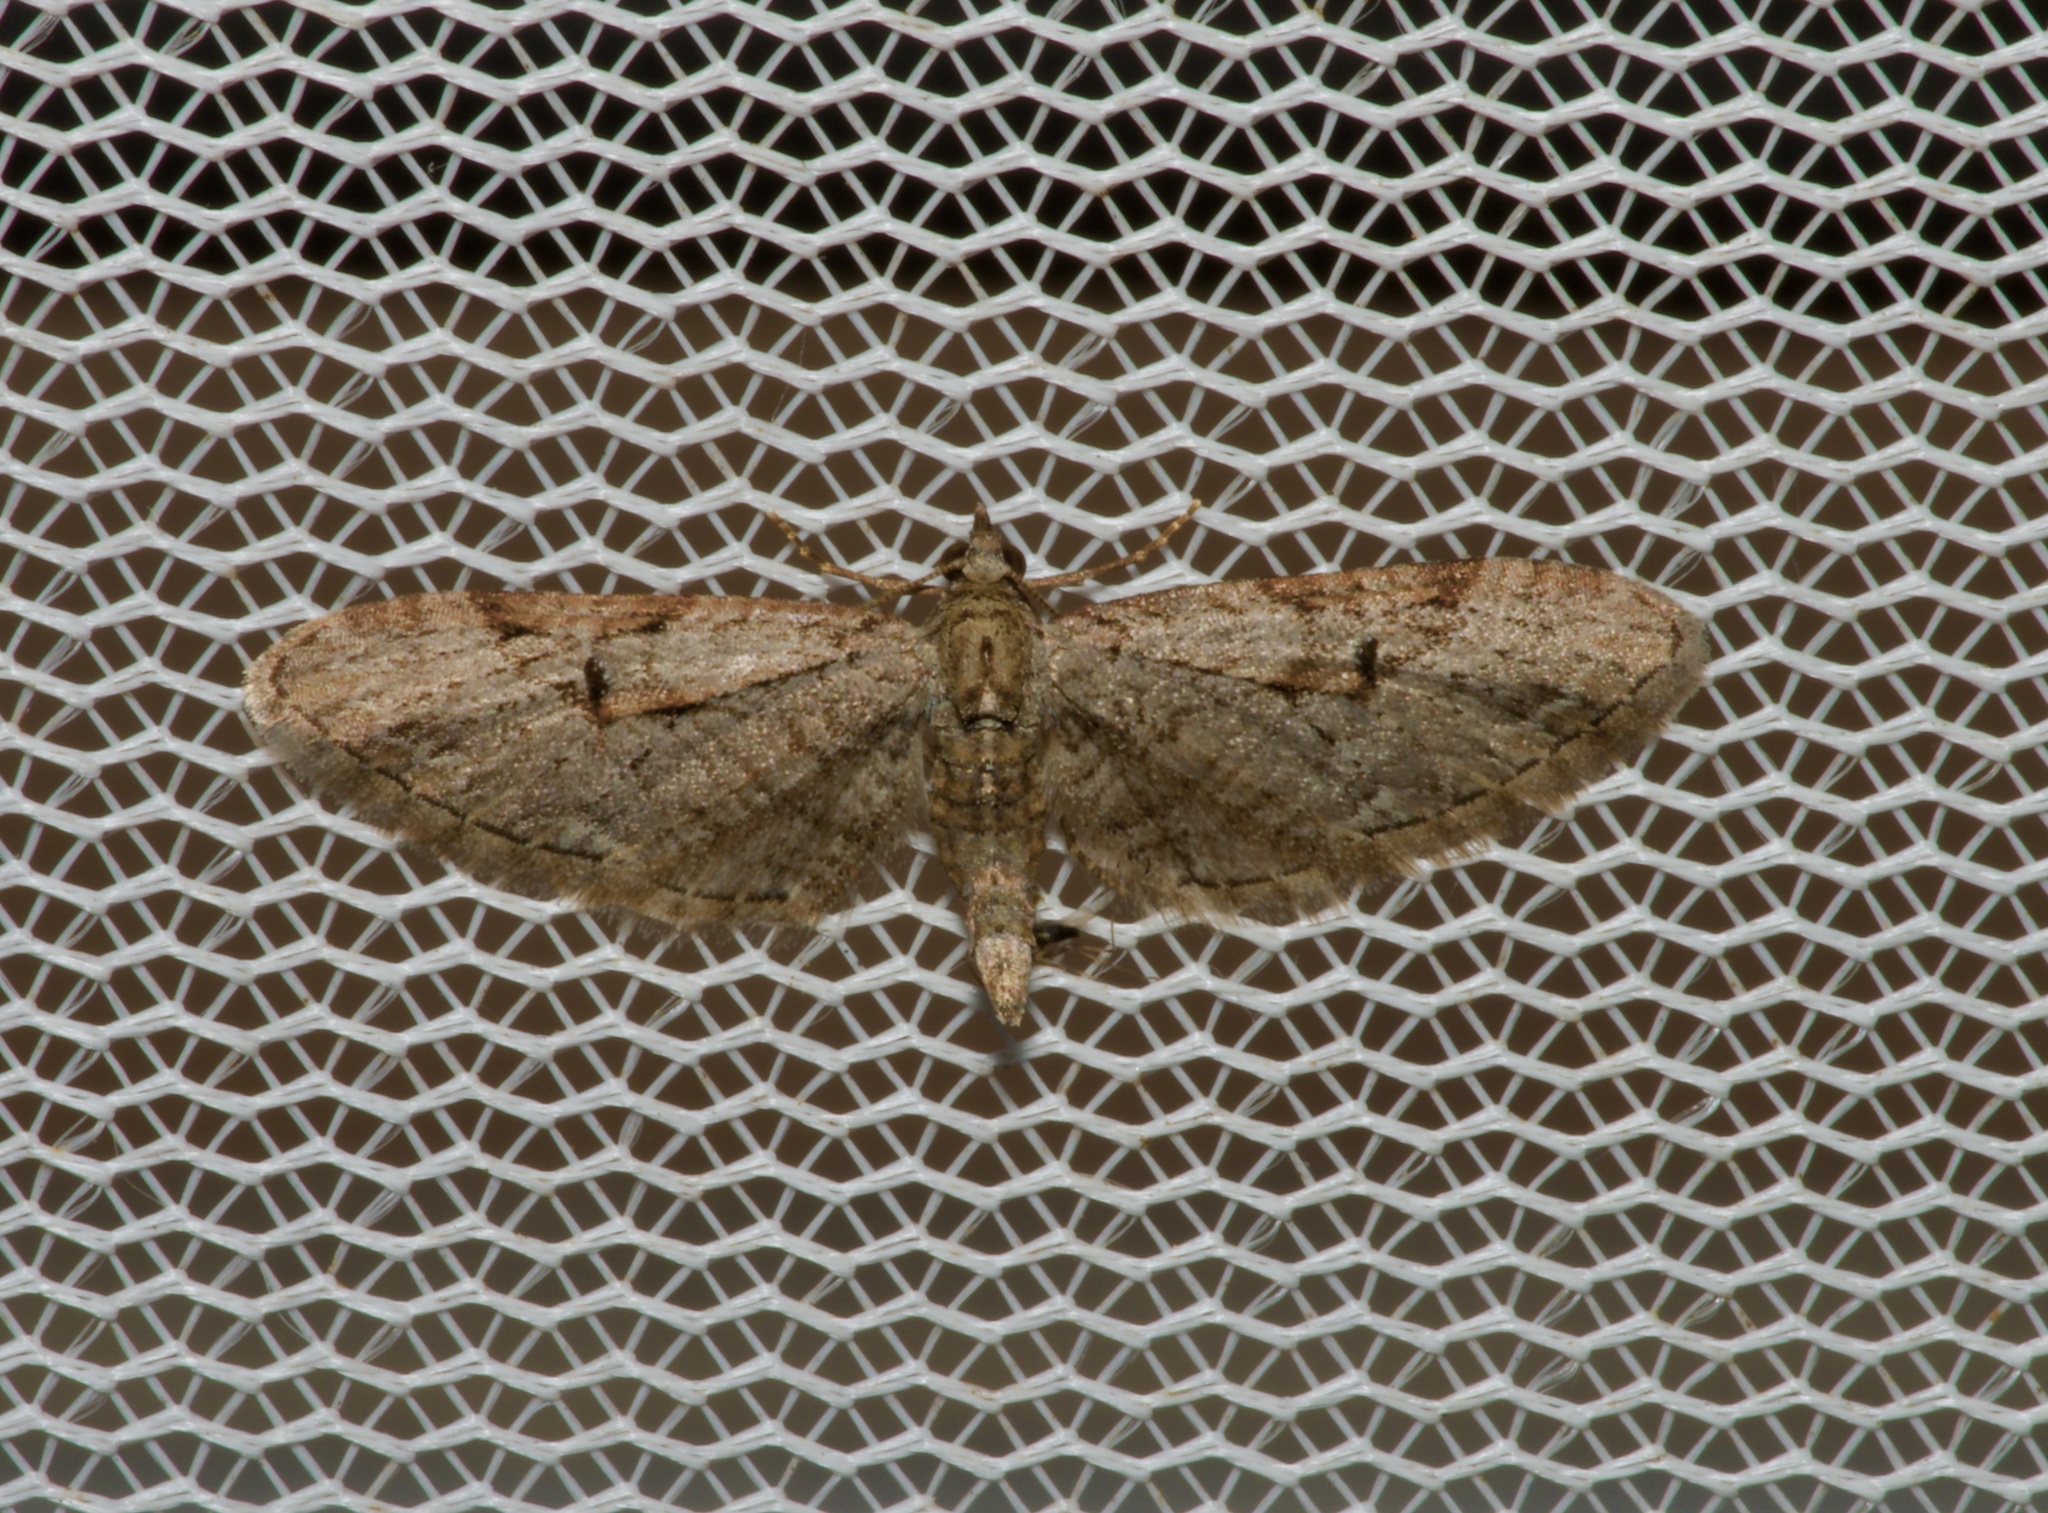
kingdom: Animalia
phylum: Arthropoda
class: Insecta
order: Lepidoptera
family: Geometridae
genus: Eupithecia
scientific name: Eupithecia bolterii
